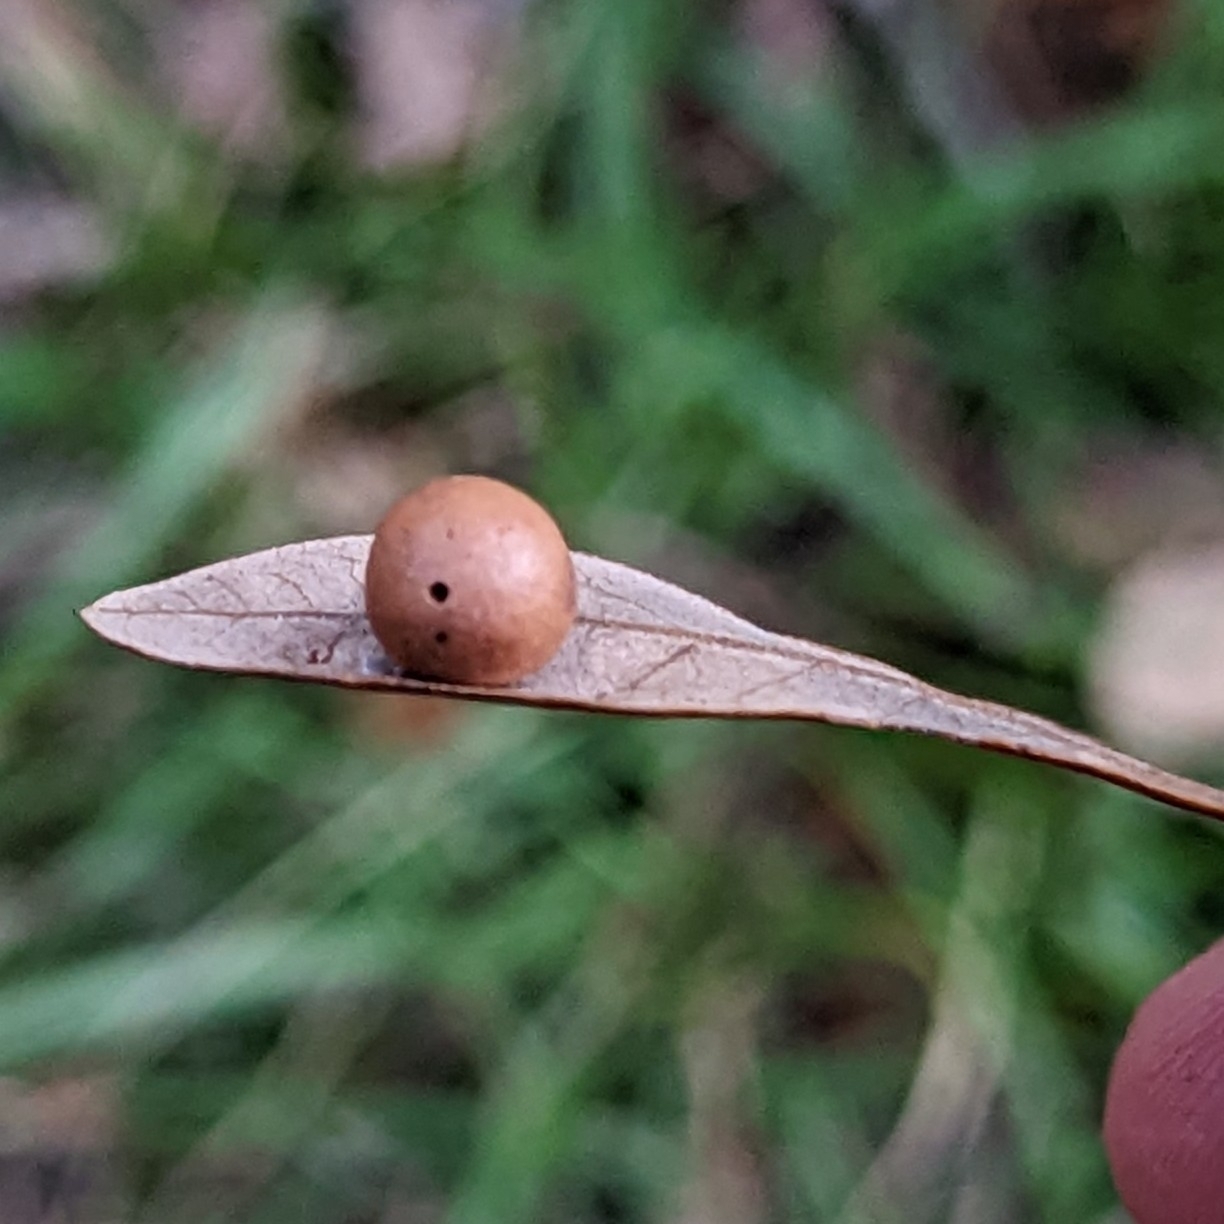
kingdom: Animalia
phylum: Arthropoda
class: Insecta
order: Hymenoptera
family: Cynipidae
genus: Belonocnema
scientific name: Belonocnema treatae
